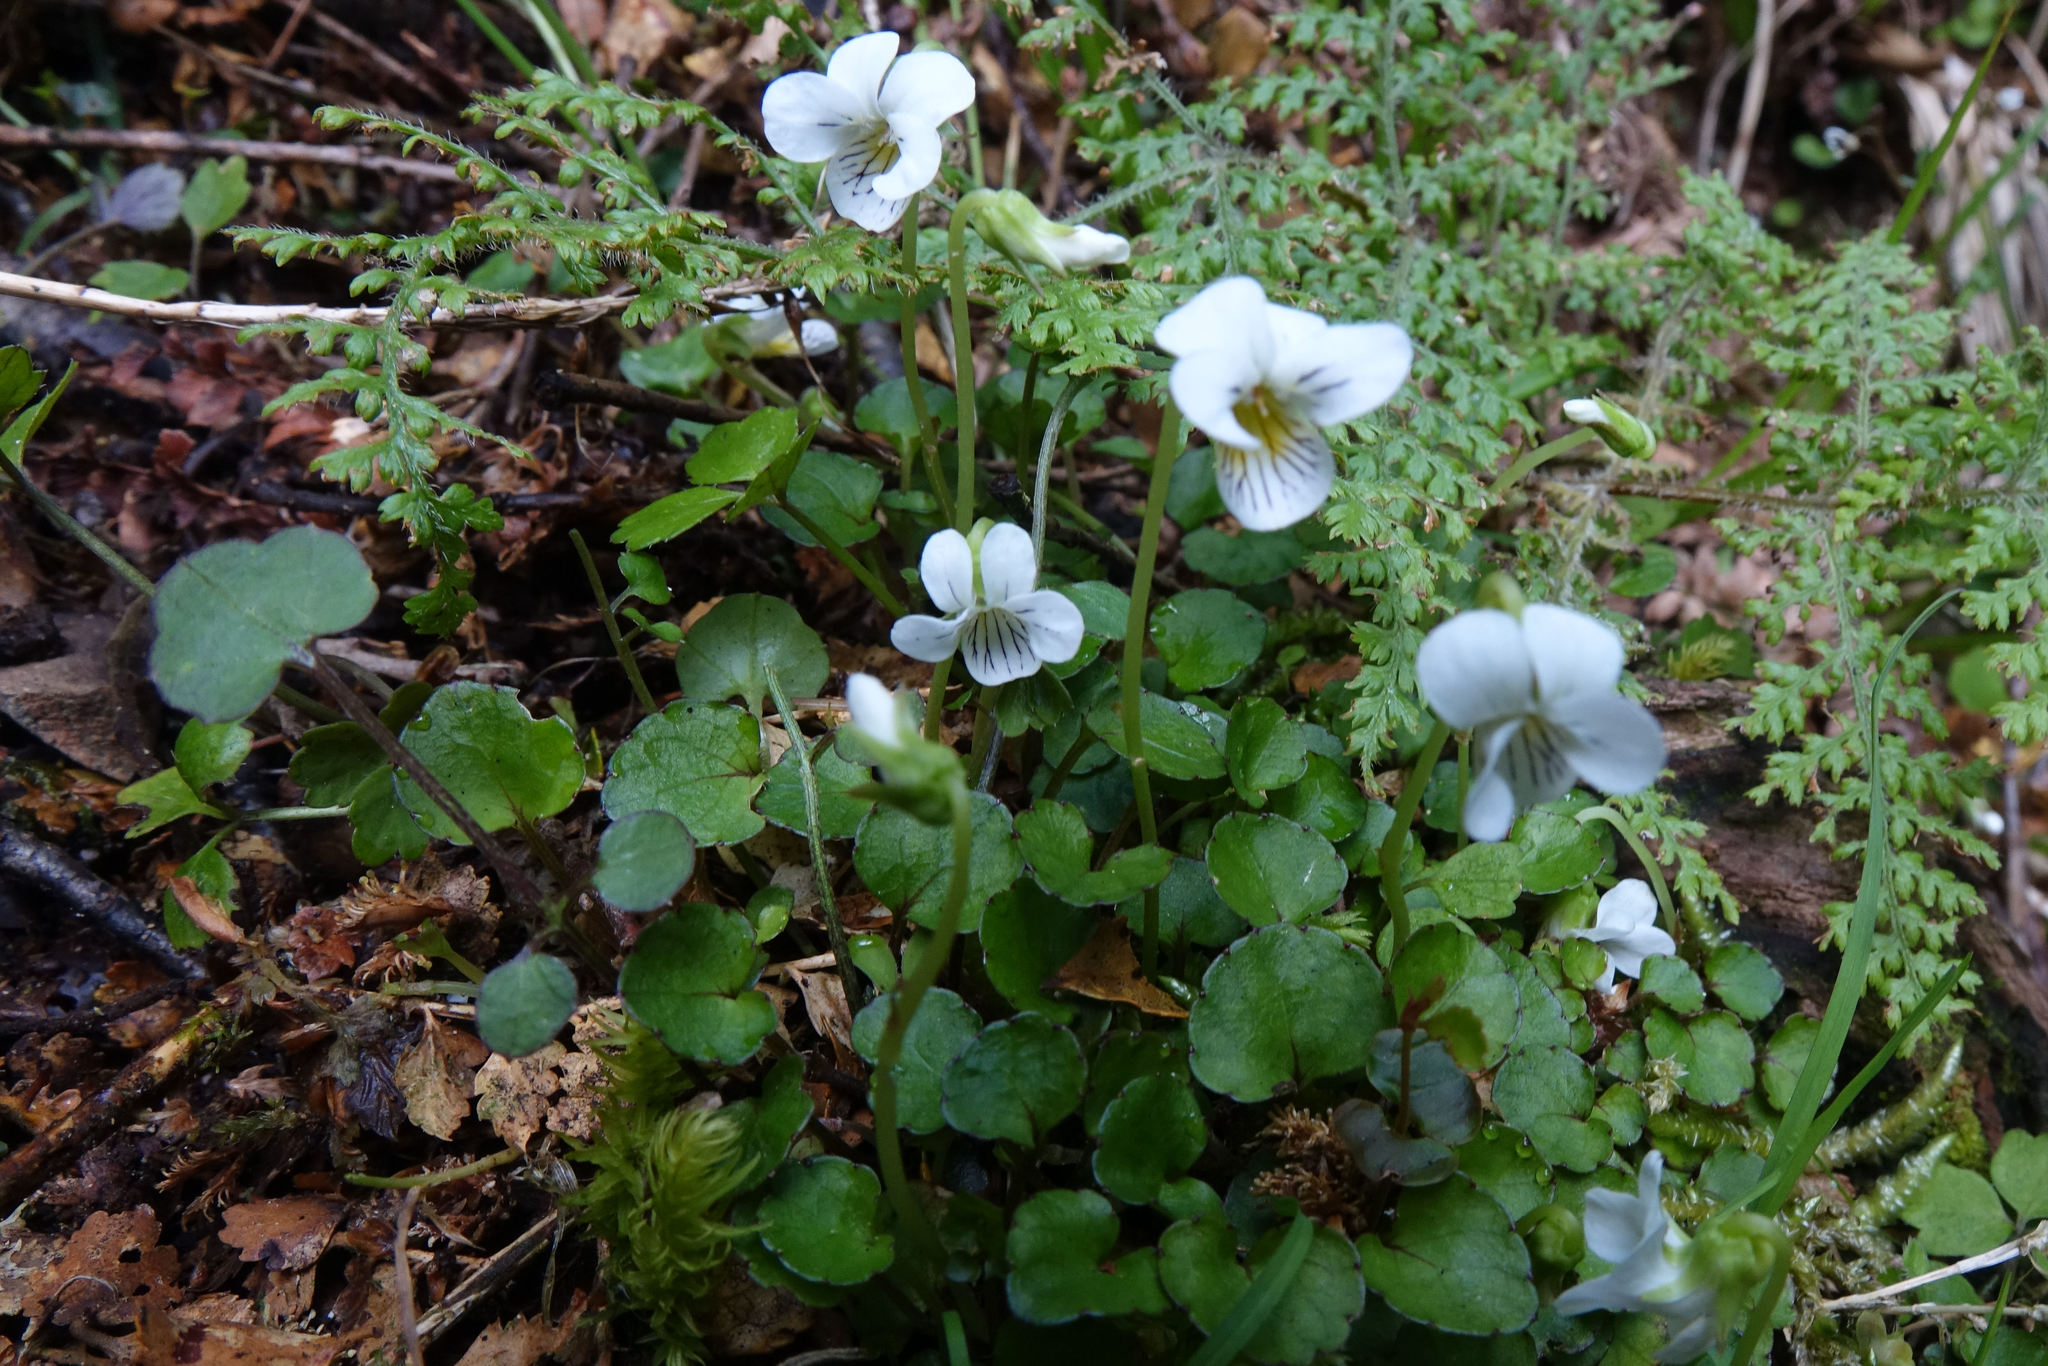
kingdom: Plantae
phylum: Tracheophyta
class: Magnoliopsida
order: Malpighiales
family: Violaceae
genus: Viola
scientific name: Viola filicaulis
